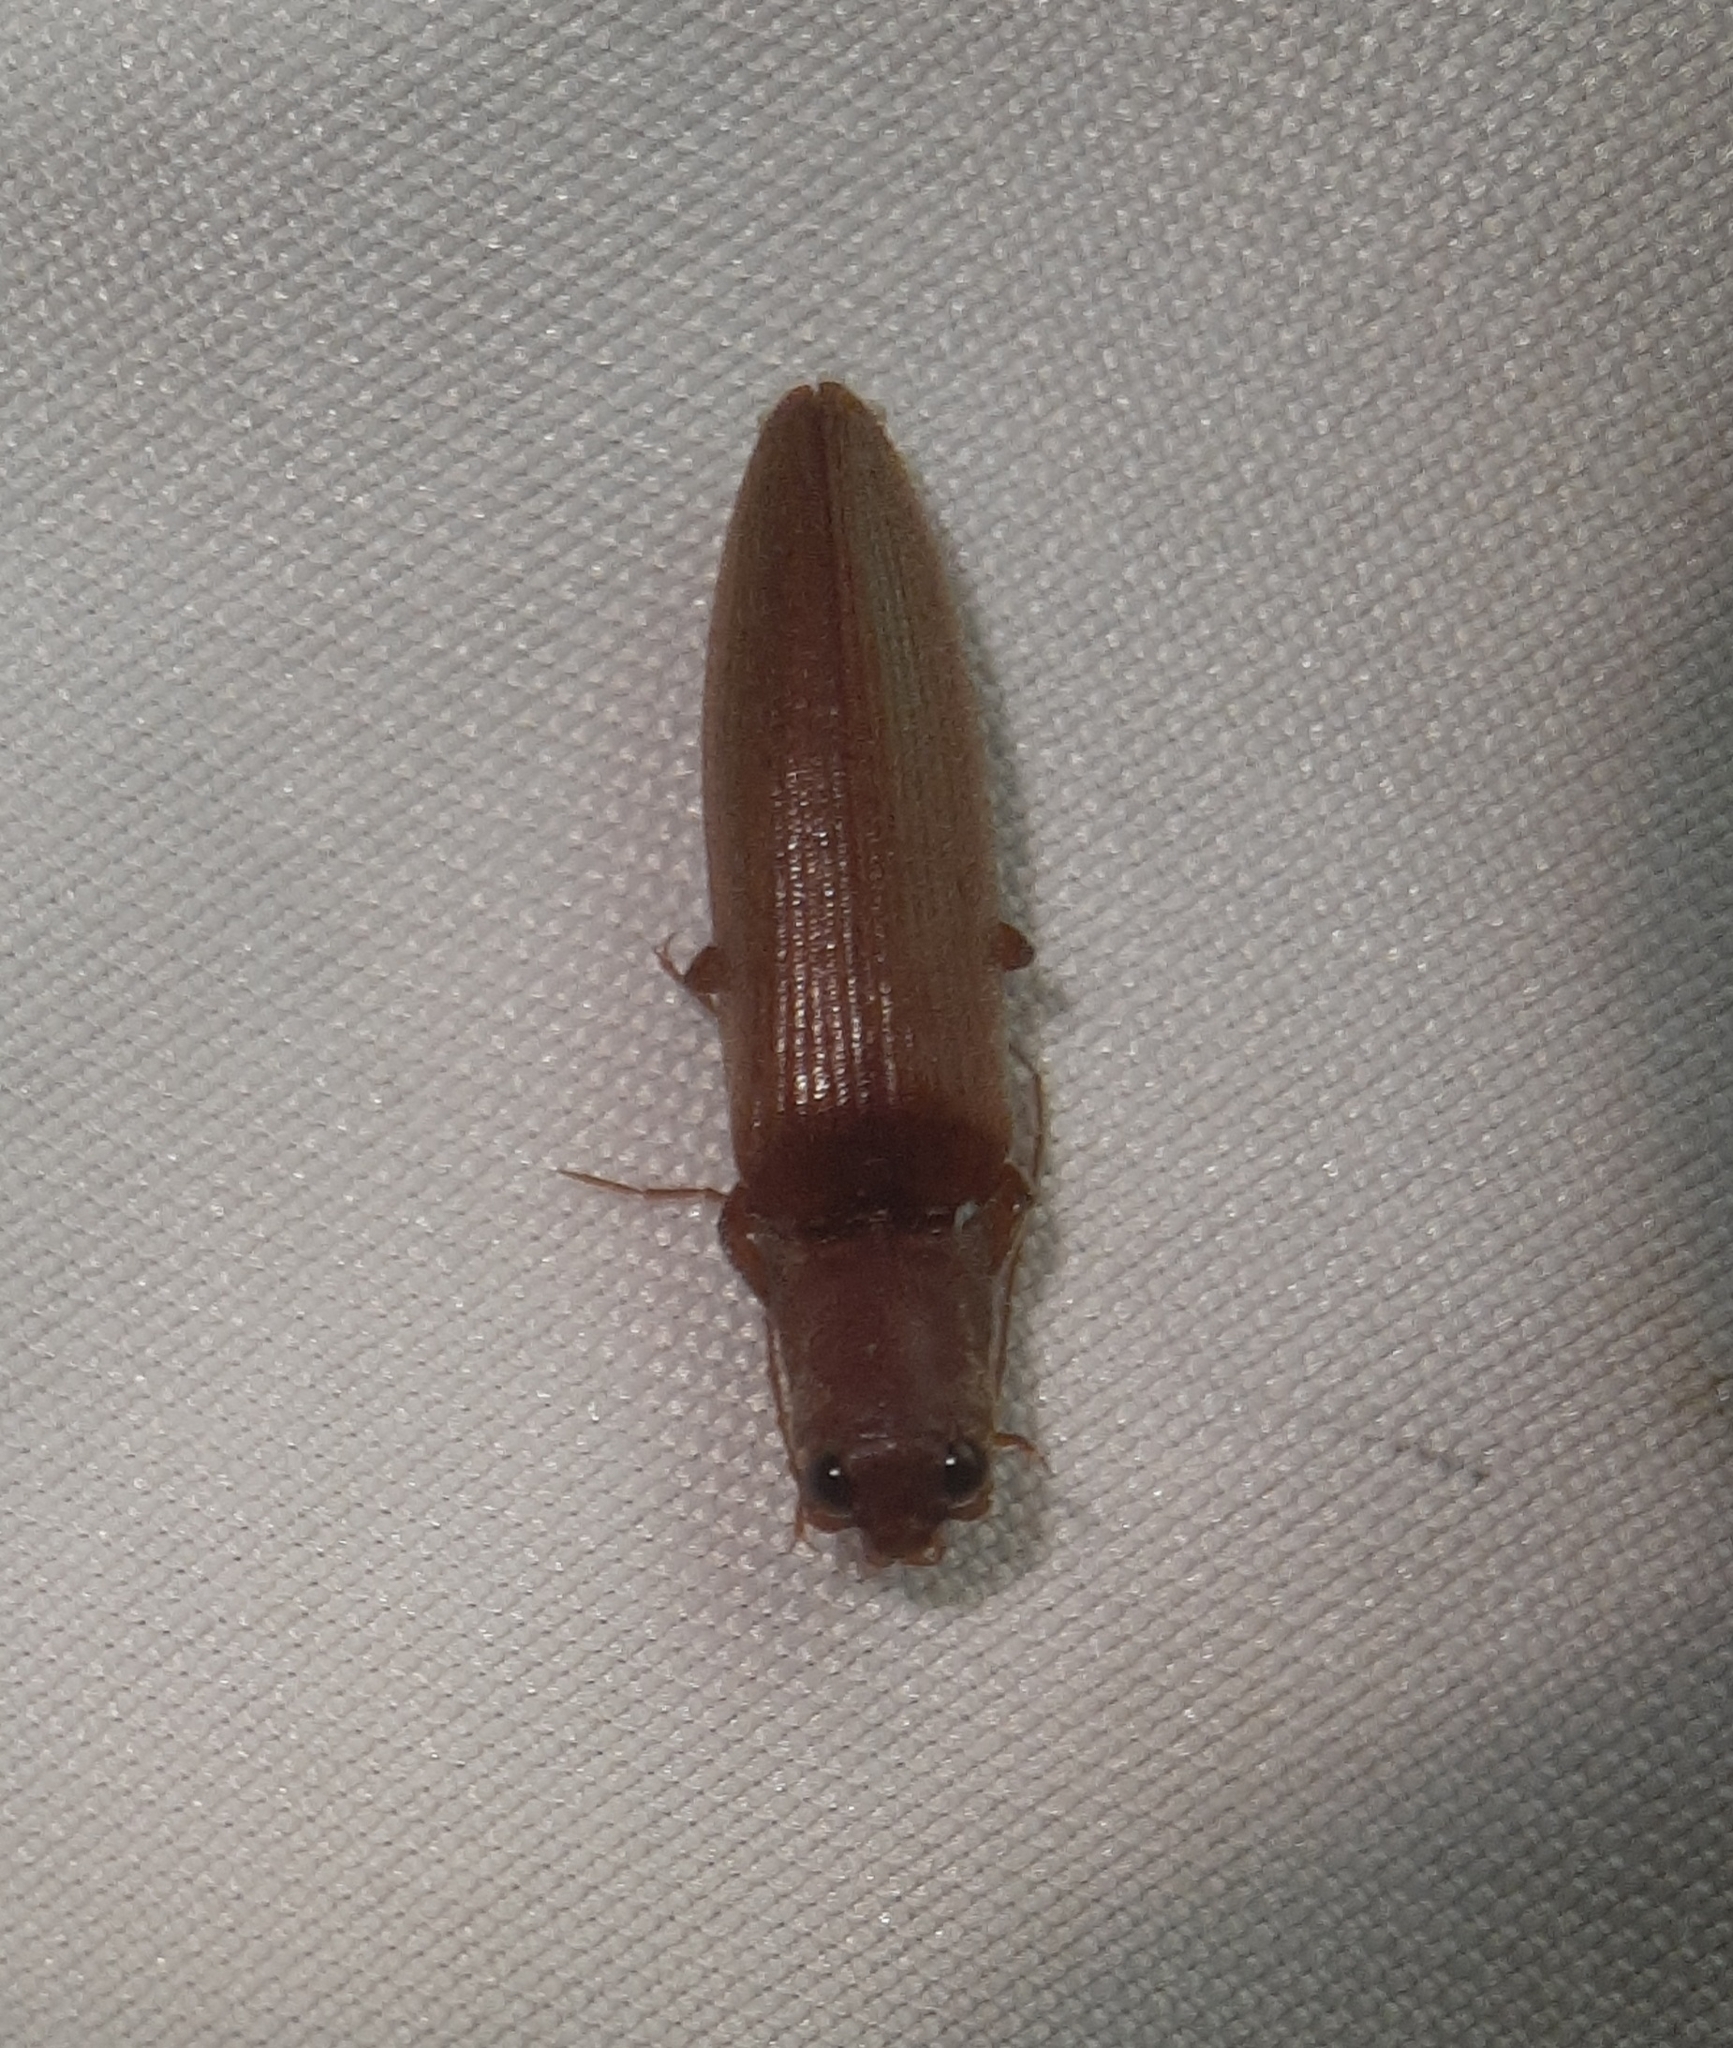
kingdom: Animalia
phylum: Arthropoda
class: Insecta
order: Coleoptera
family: Elateridae
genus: Proludius
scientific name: Proludius pyrros
